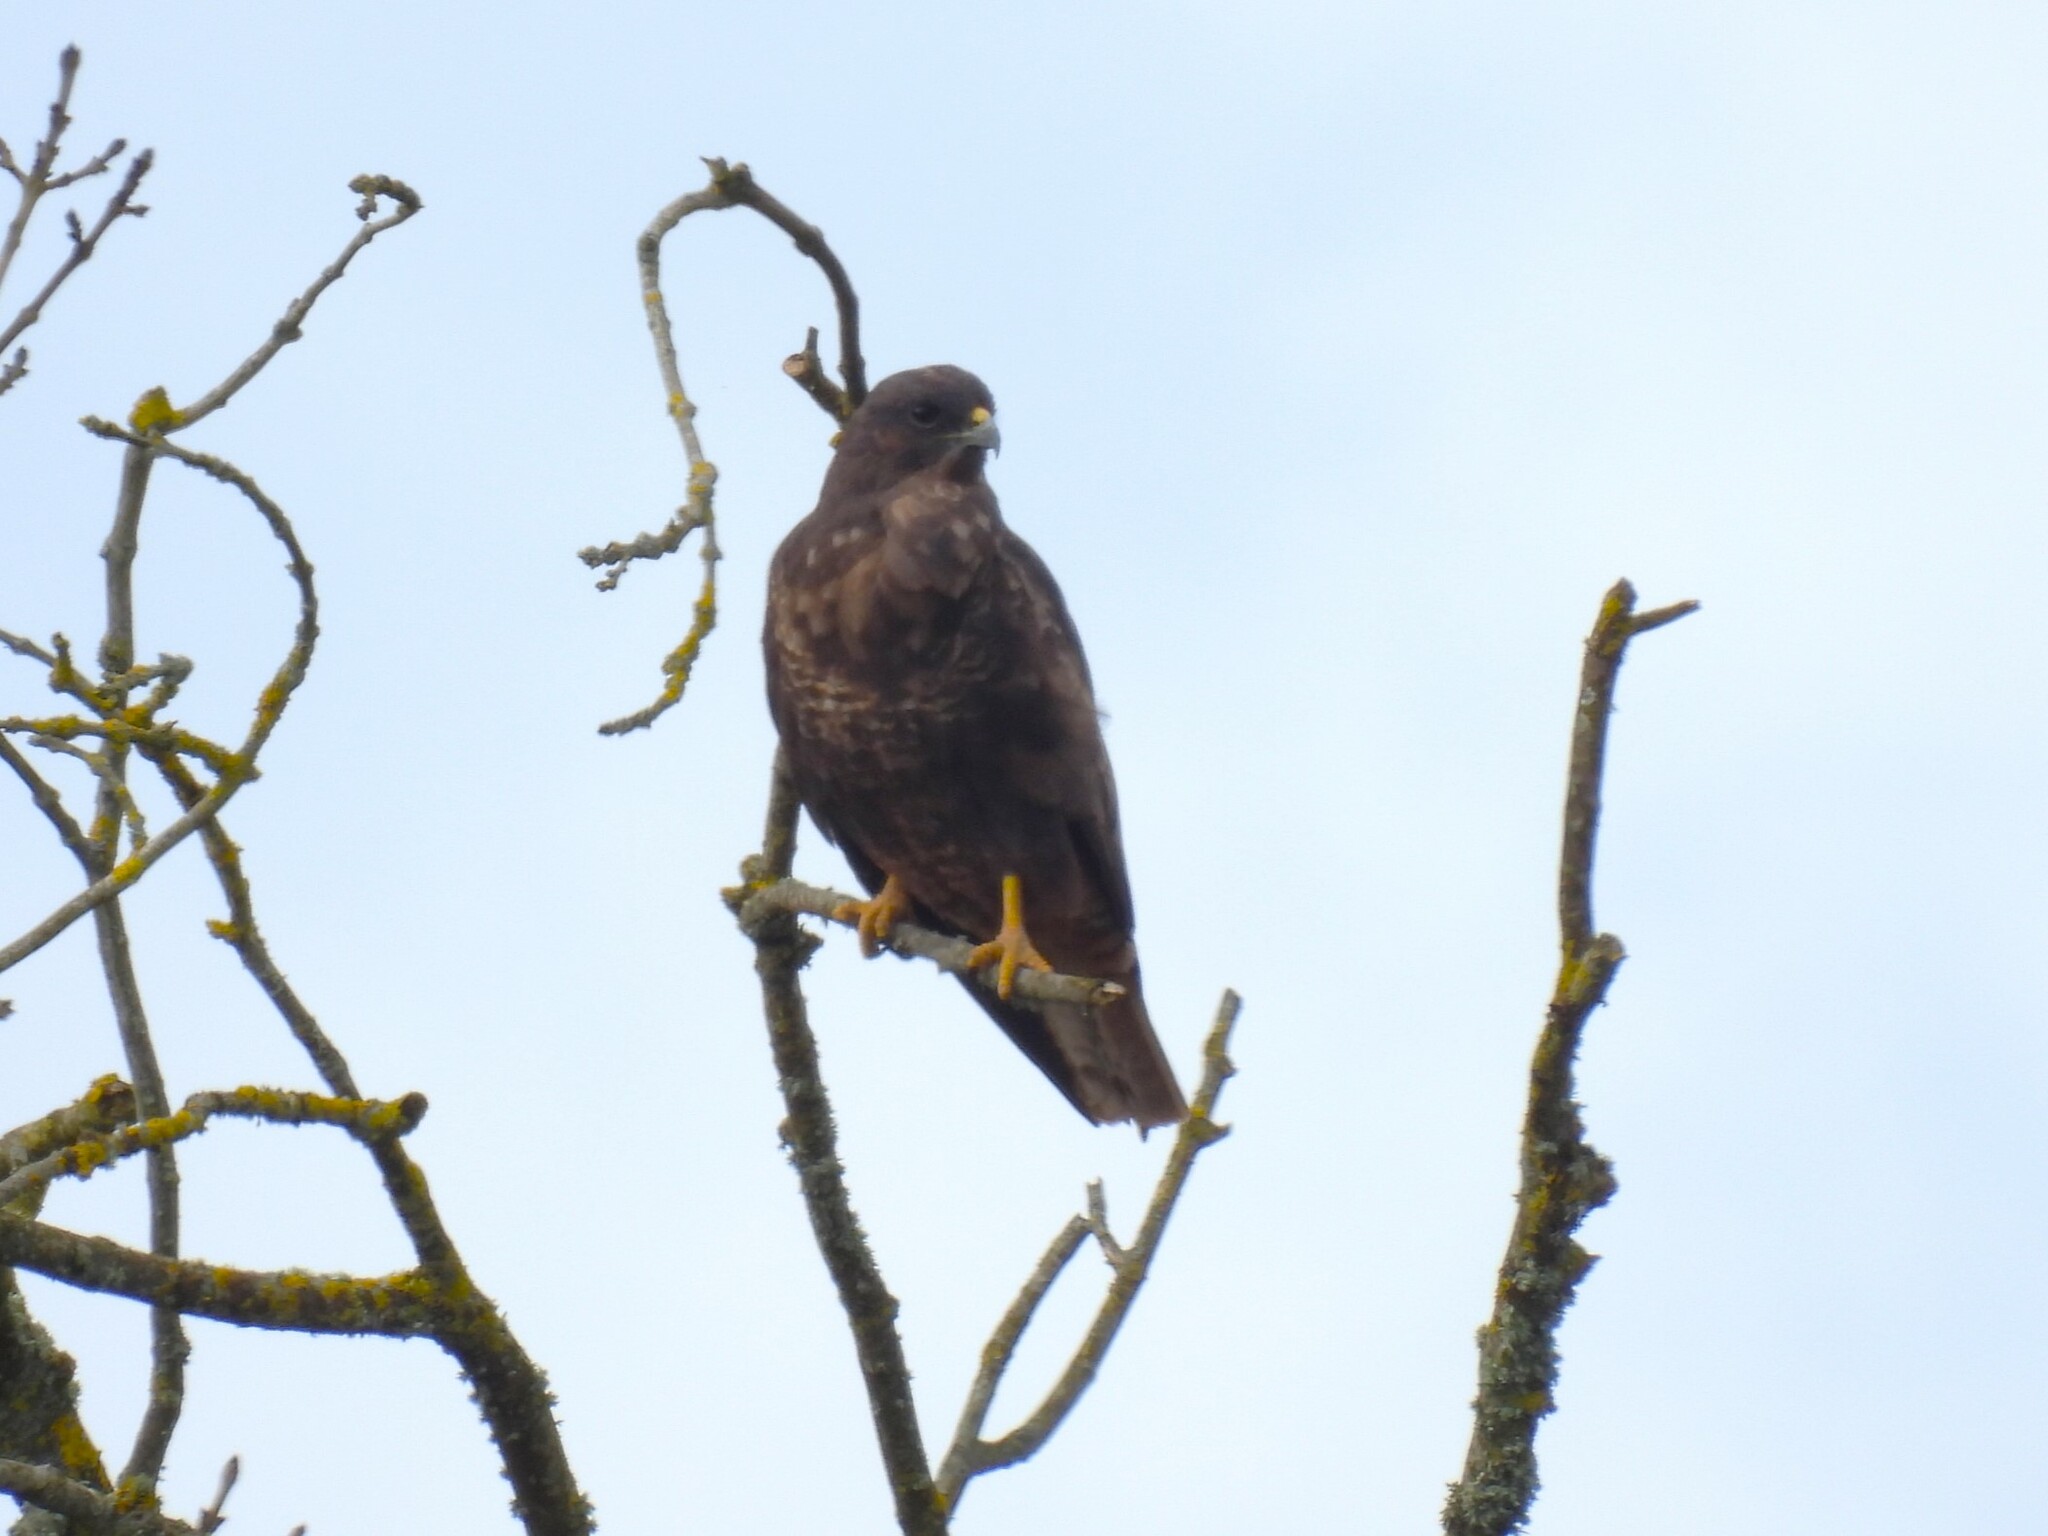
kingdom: Animalia
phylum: Chordata
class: Aves
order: Accipitriformes
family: Accipitridae
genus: Buteo
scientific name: Buteo buteo
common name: Common buzzard
